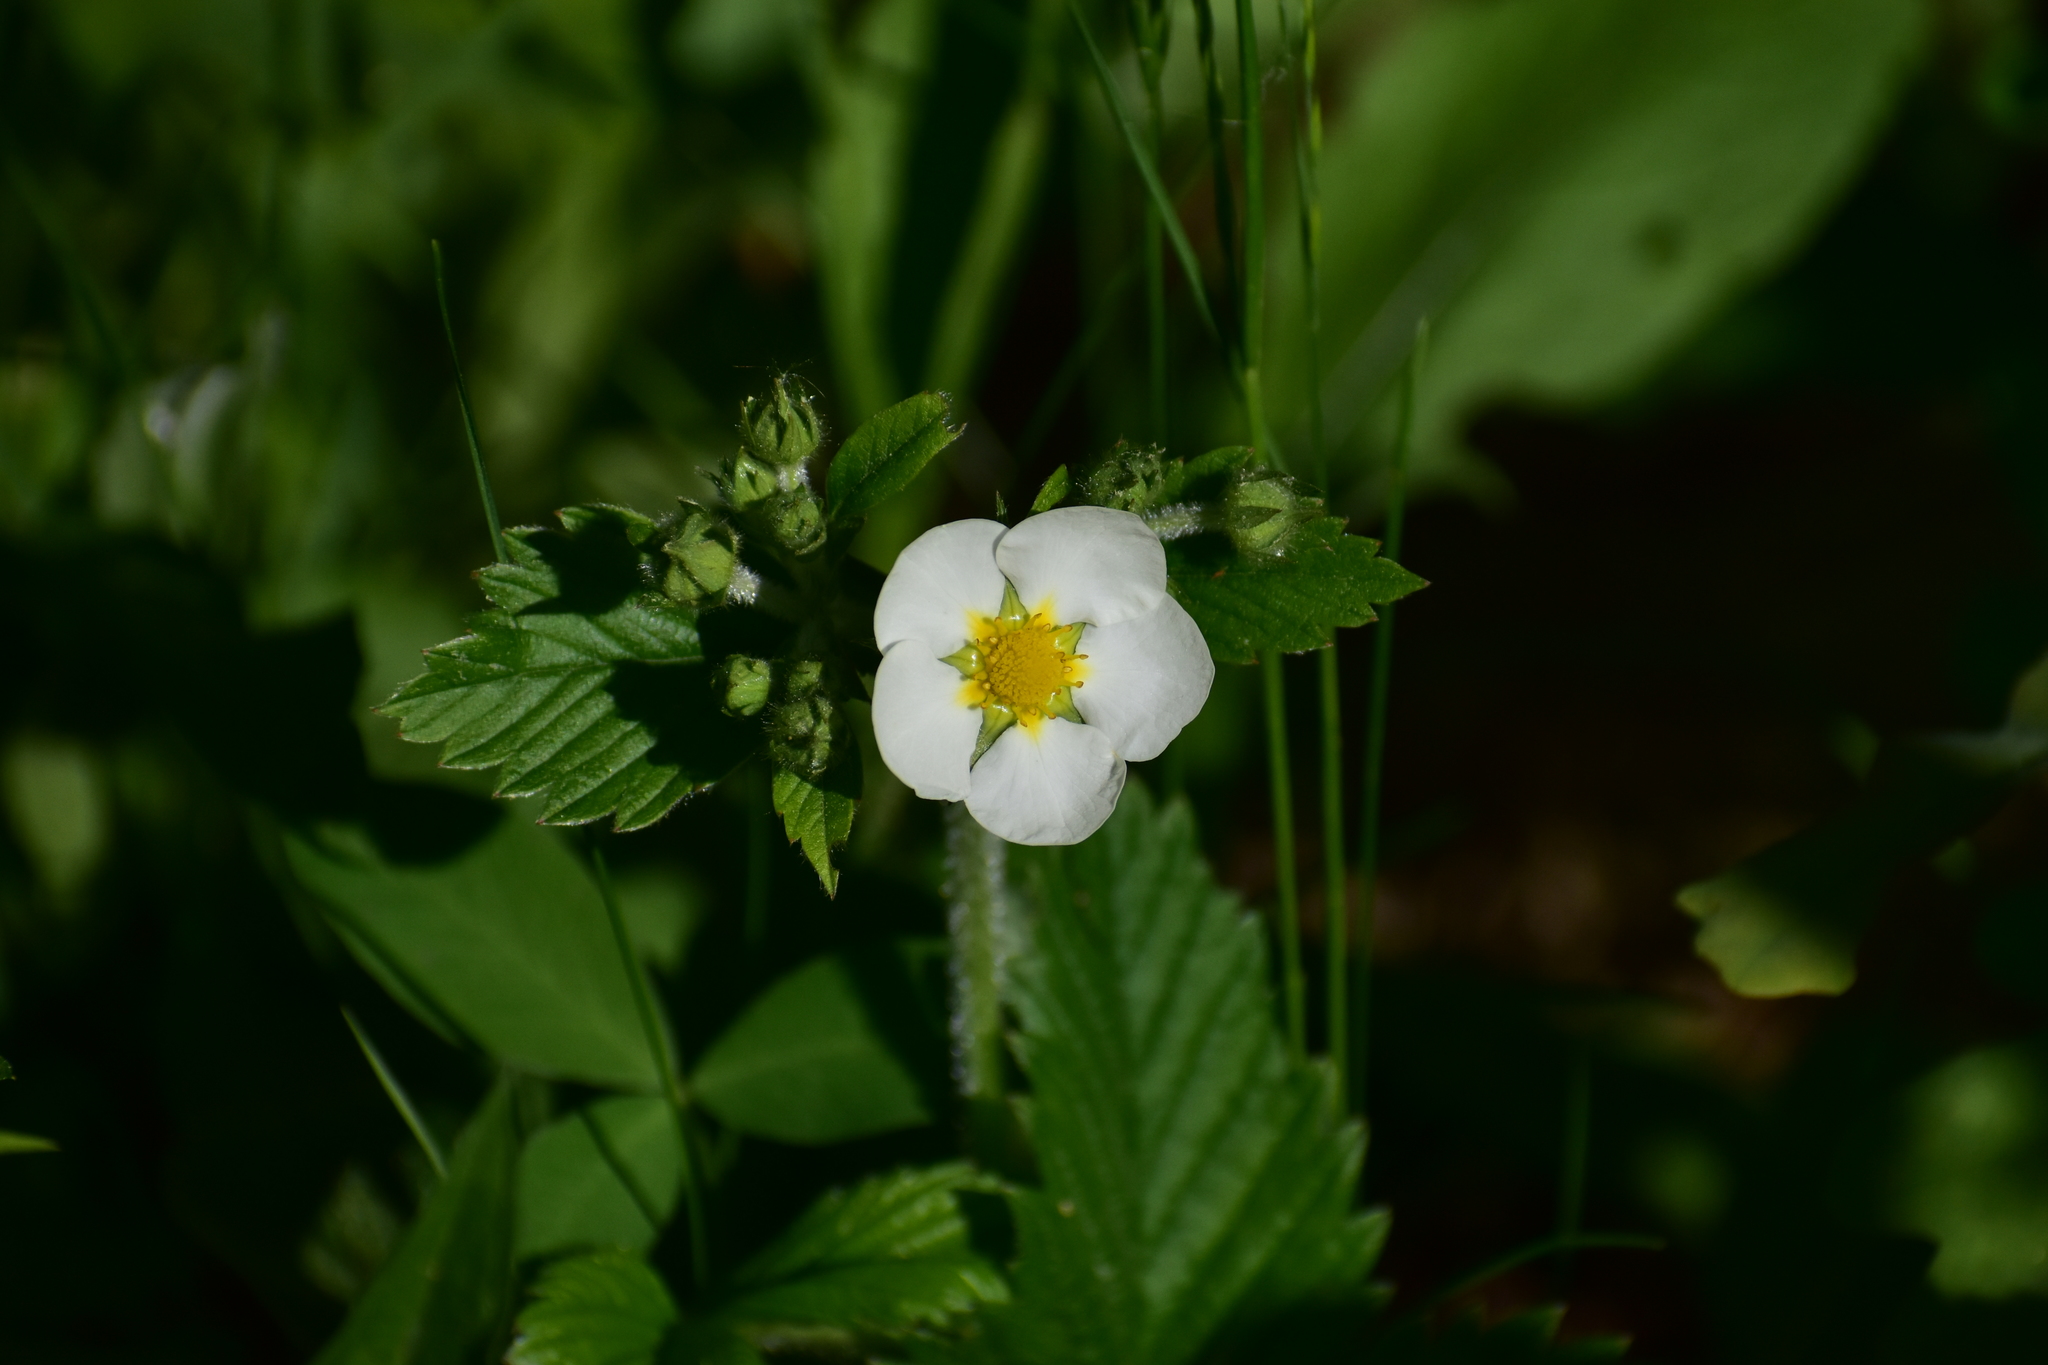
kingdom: Plantae
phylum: Tracheophyta
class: Magnoliopsida
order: Rosales
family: Rosaceae
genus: Fragaria
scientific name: Fragaria moschata
